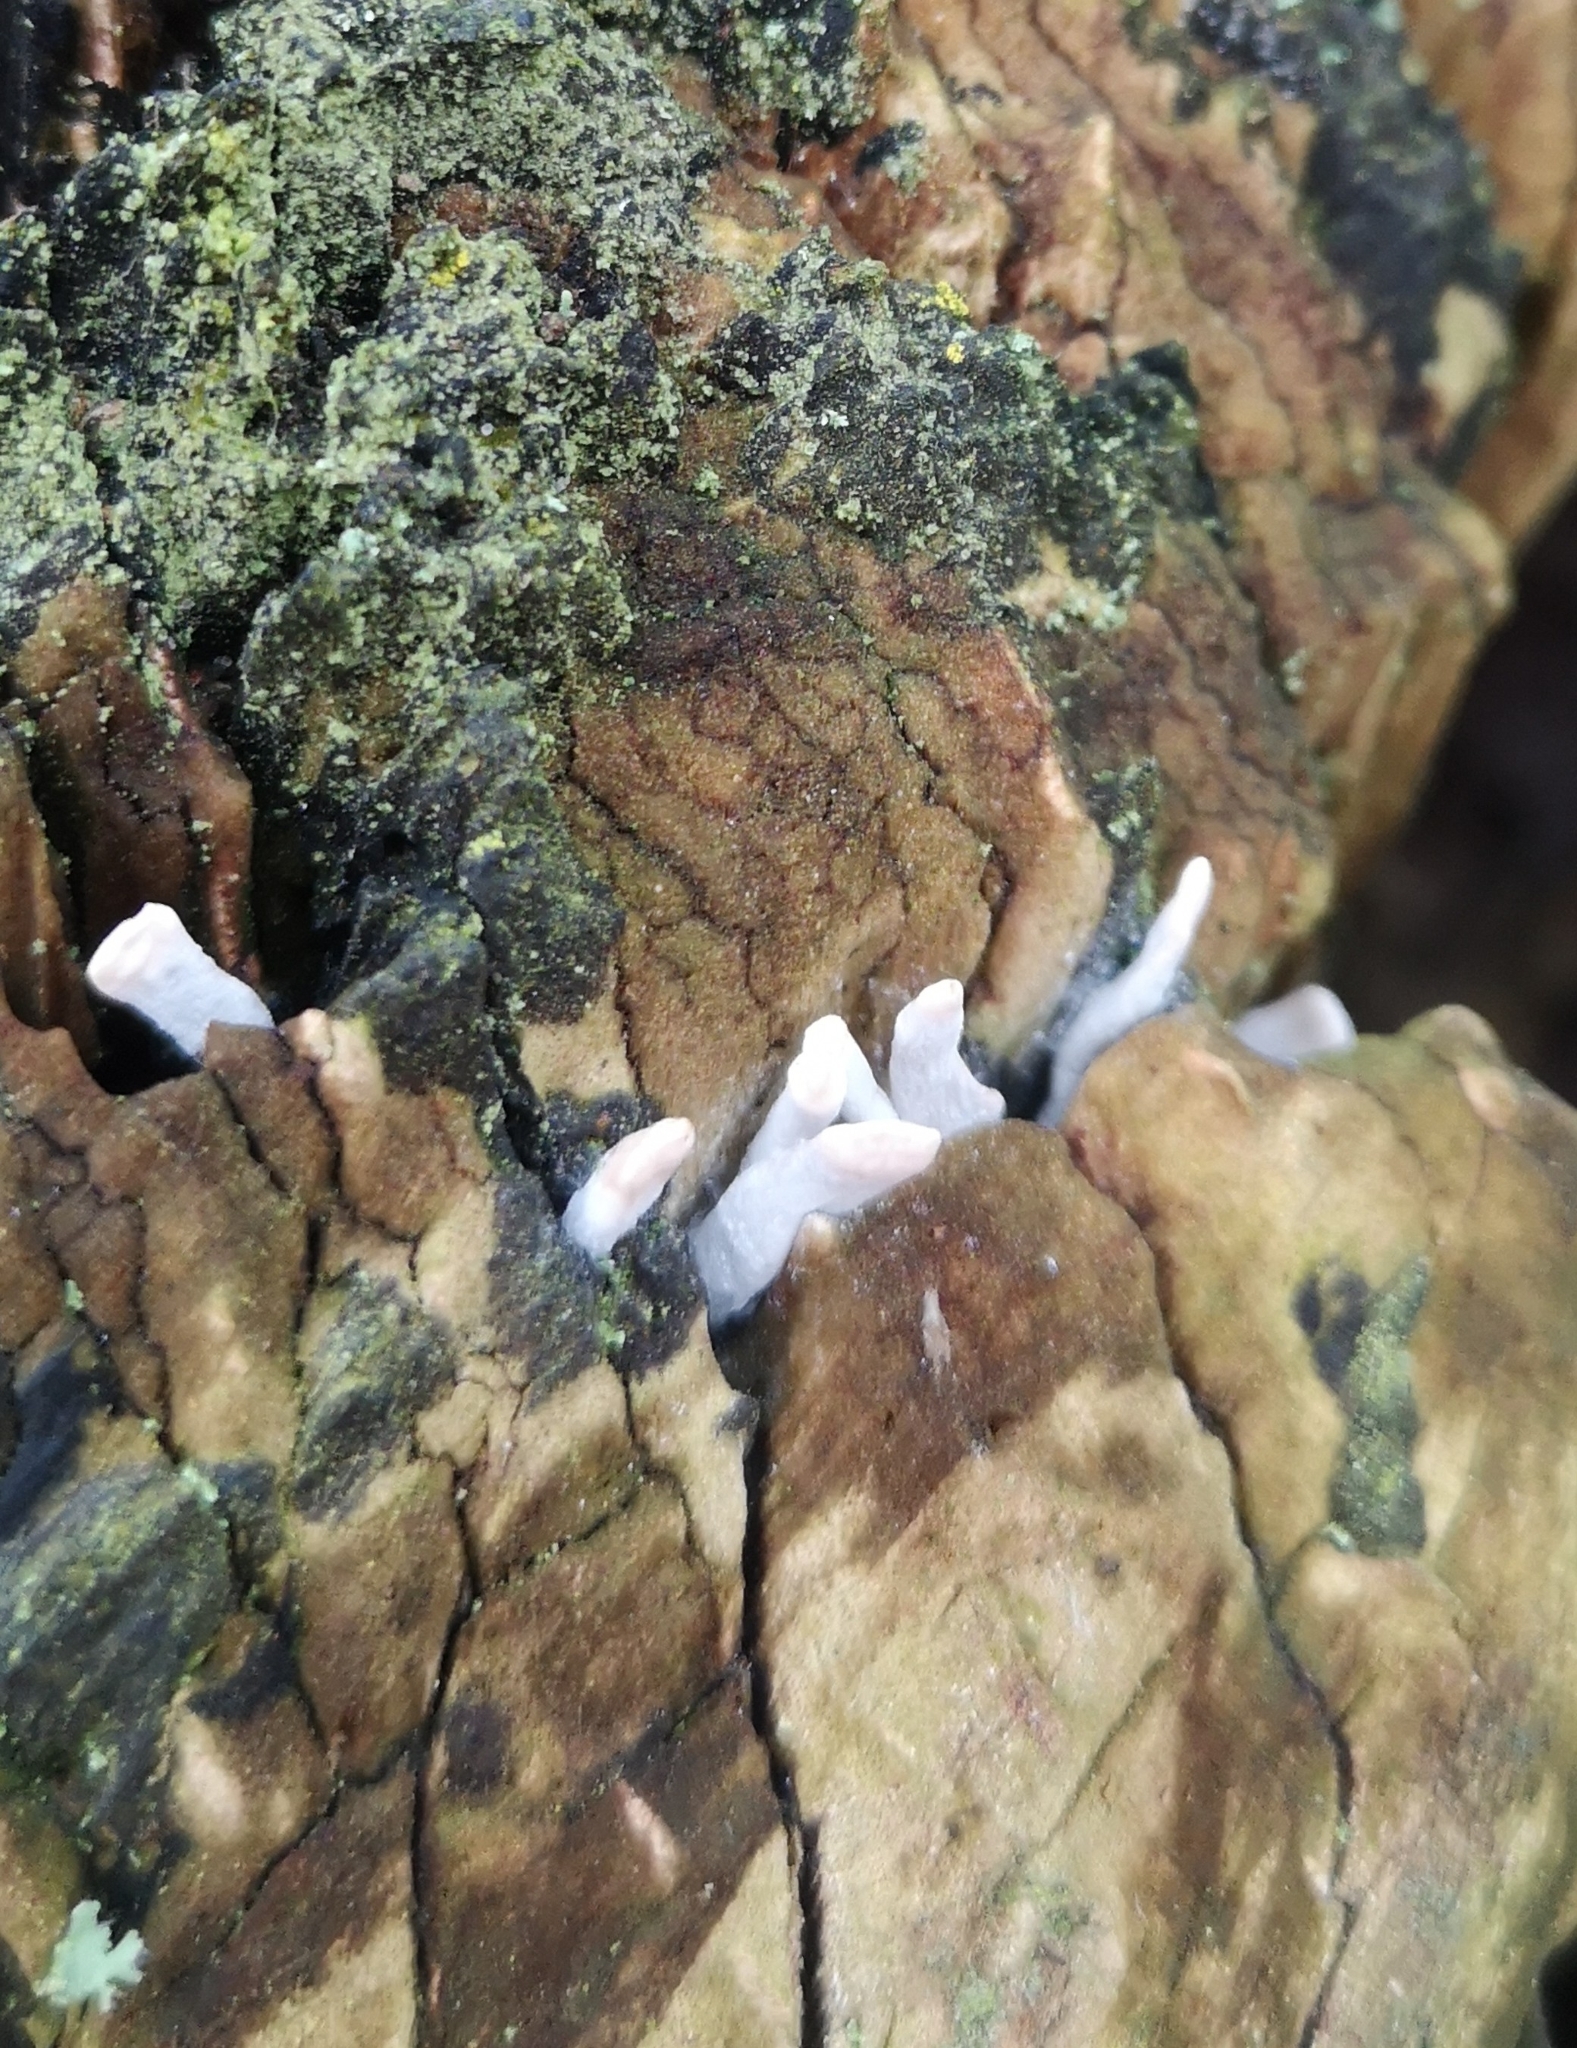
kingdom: Fungi
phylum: Ascomycota
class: Sordariomycetes
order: Xylariales
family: Xylariaceae
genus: Xylaria
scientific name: Xylaria hypoxylon
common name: Candle-snuff fungus
